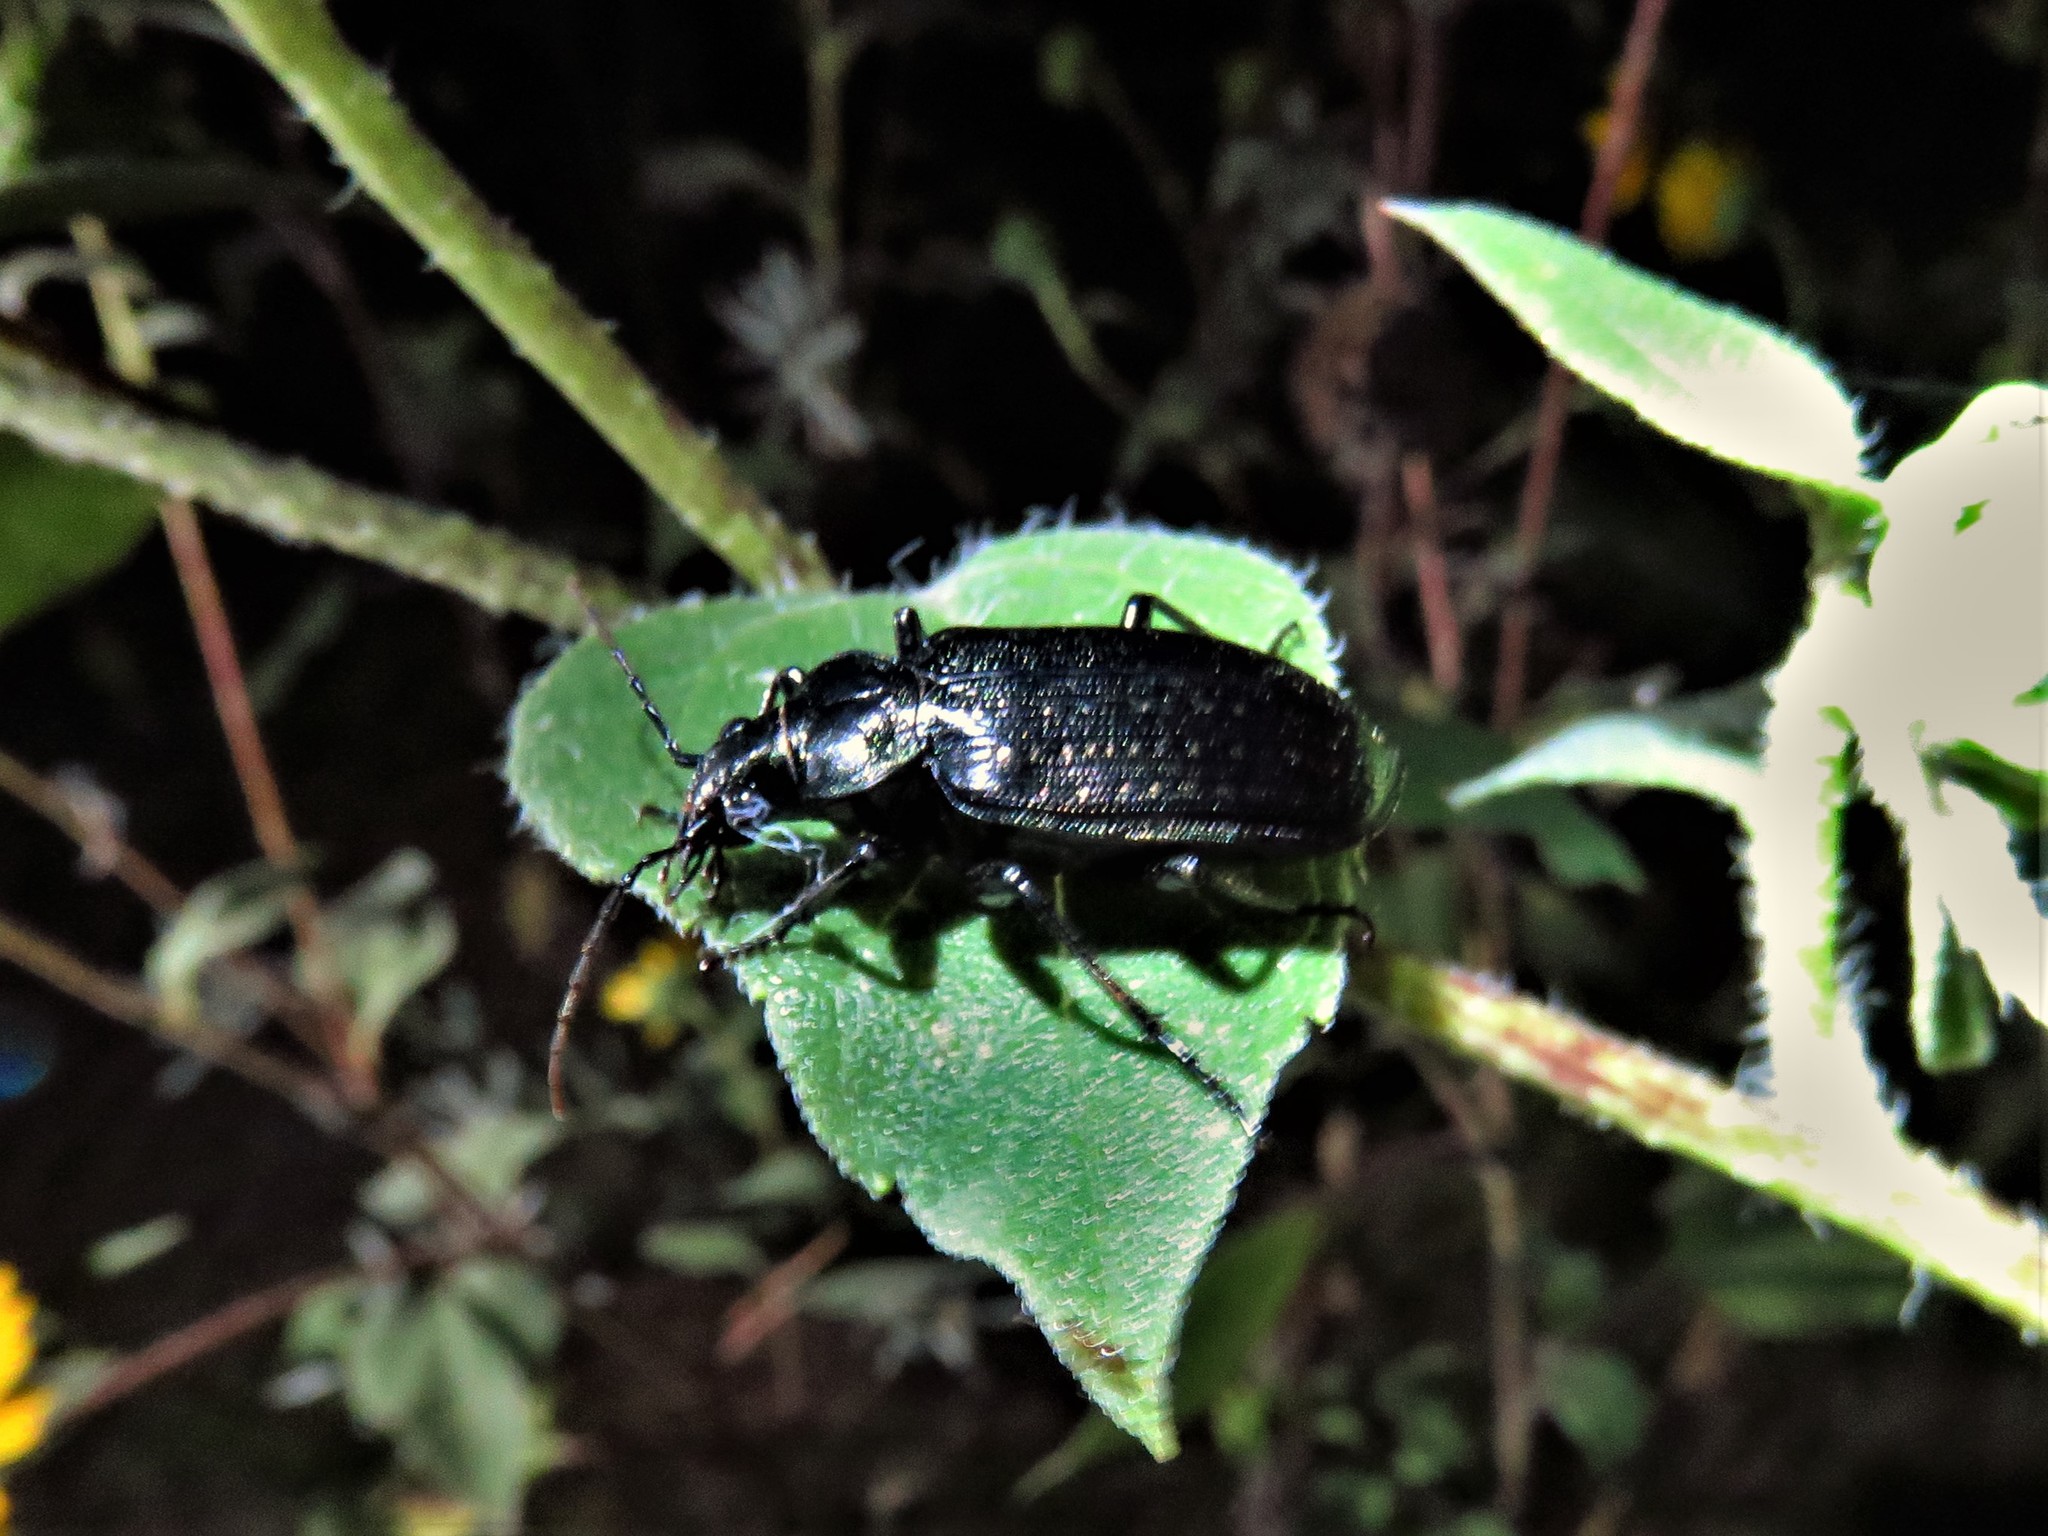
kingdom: Animalia
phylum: Arthropoda
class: Insecta
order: Coleoptera
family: Carabidae
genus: Calosoma
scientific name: Calosoma sayi
